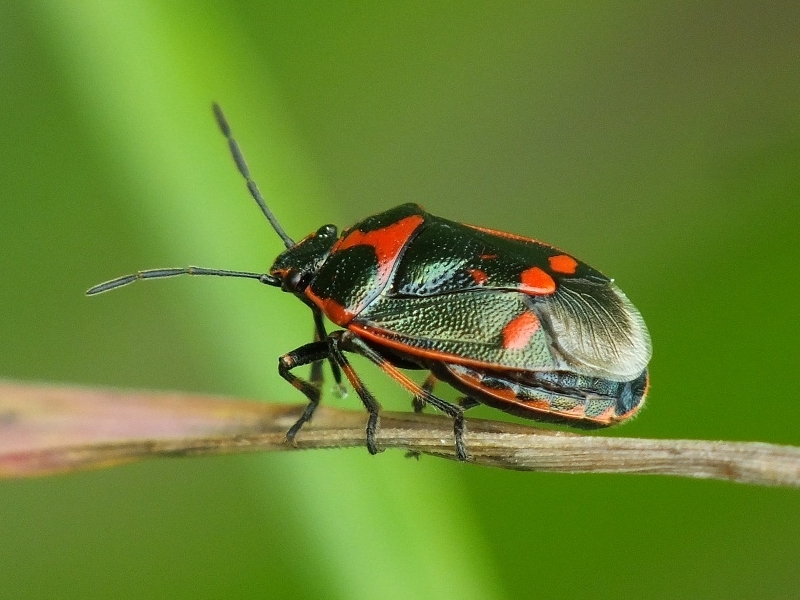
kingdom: Animalia
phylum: Arthropoda
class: Insecta
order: Hemiptera
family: Pentatomidae
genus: Eurydema
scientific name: Eurydema oleracea
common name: Cabbage bug
